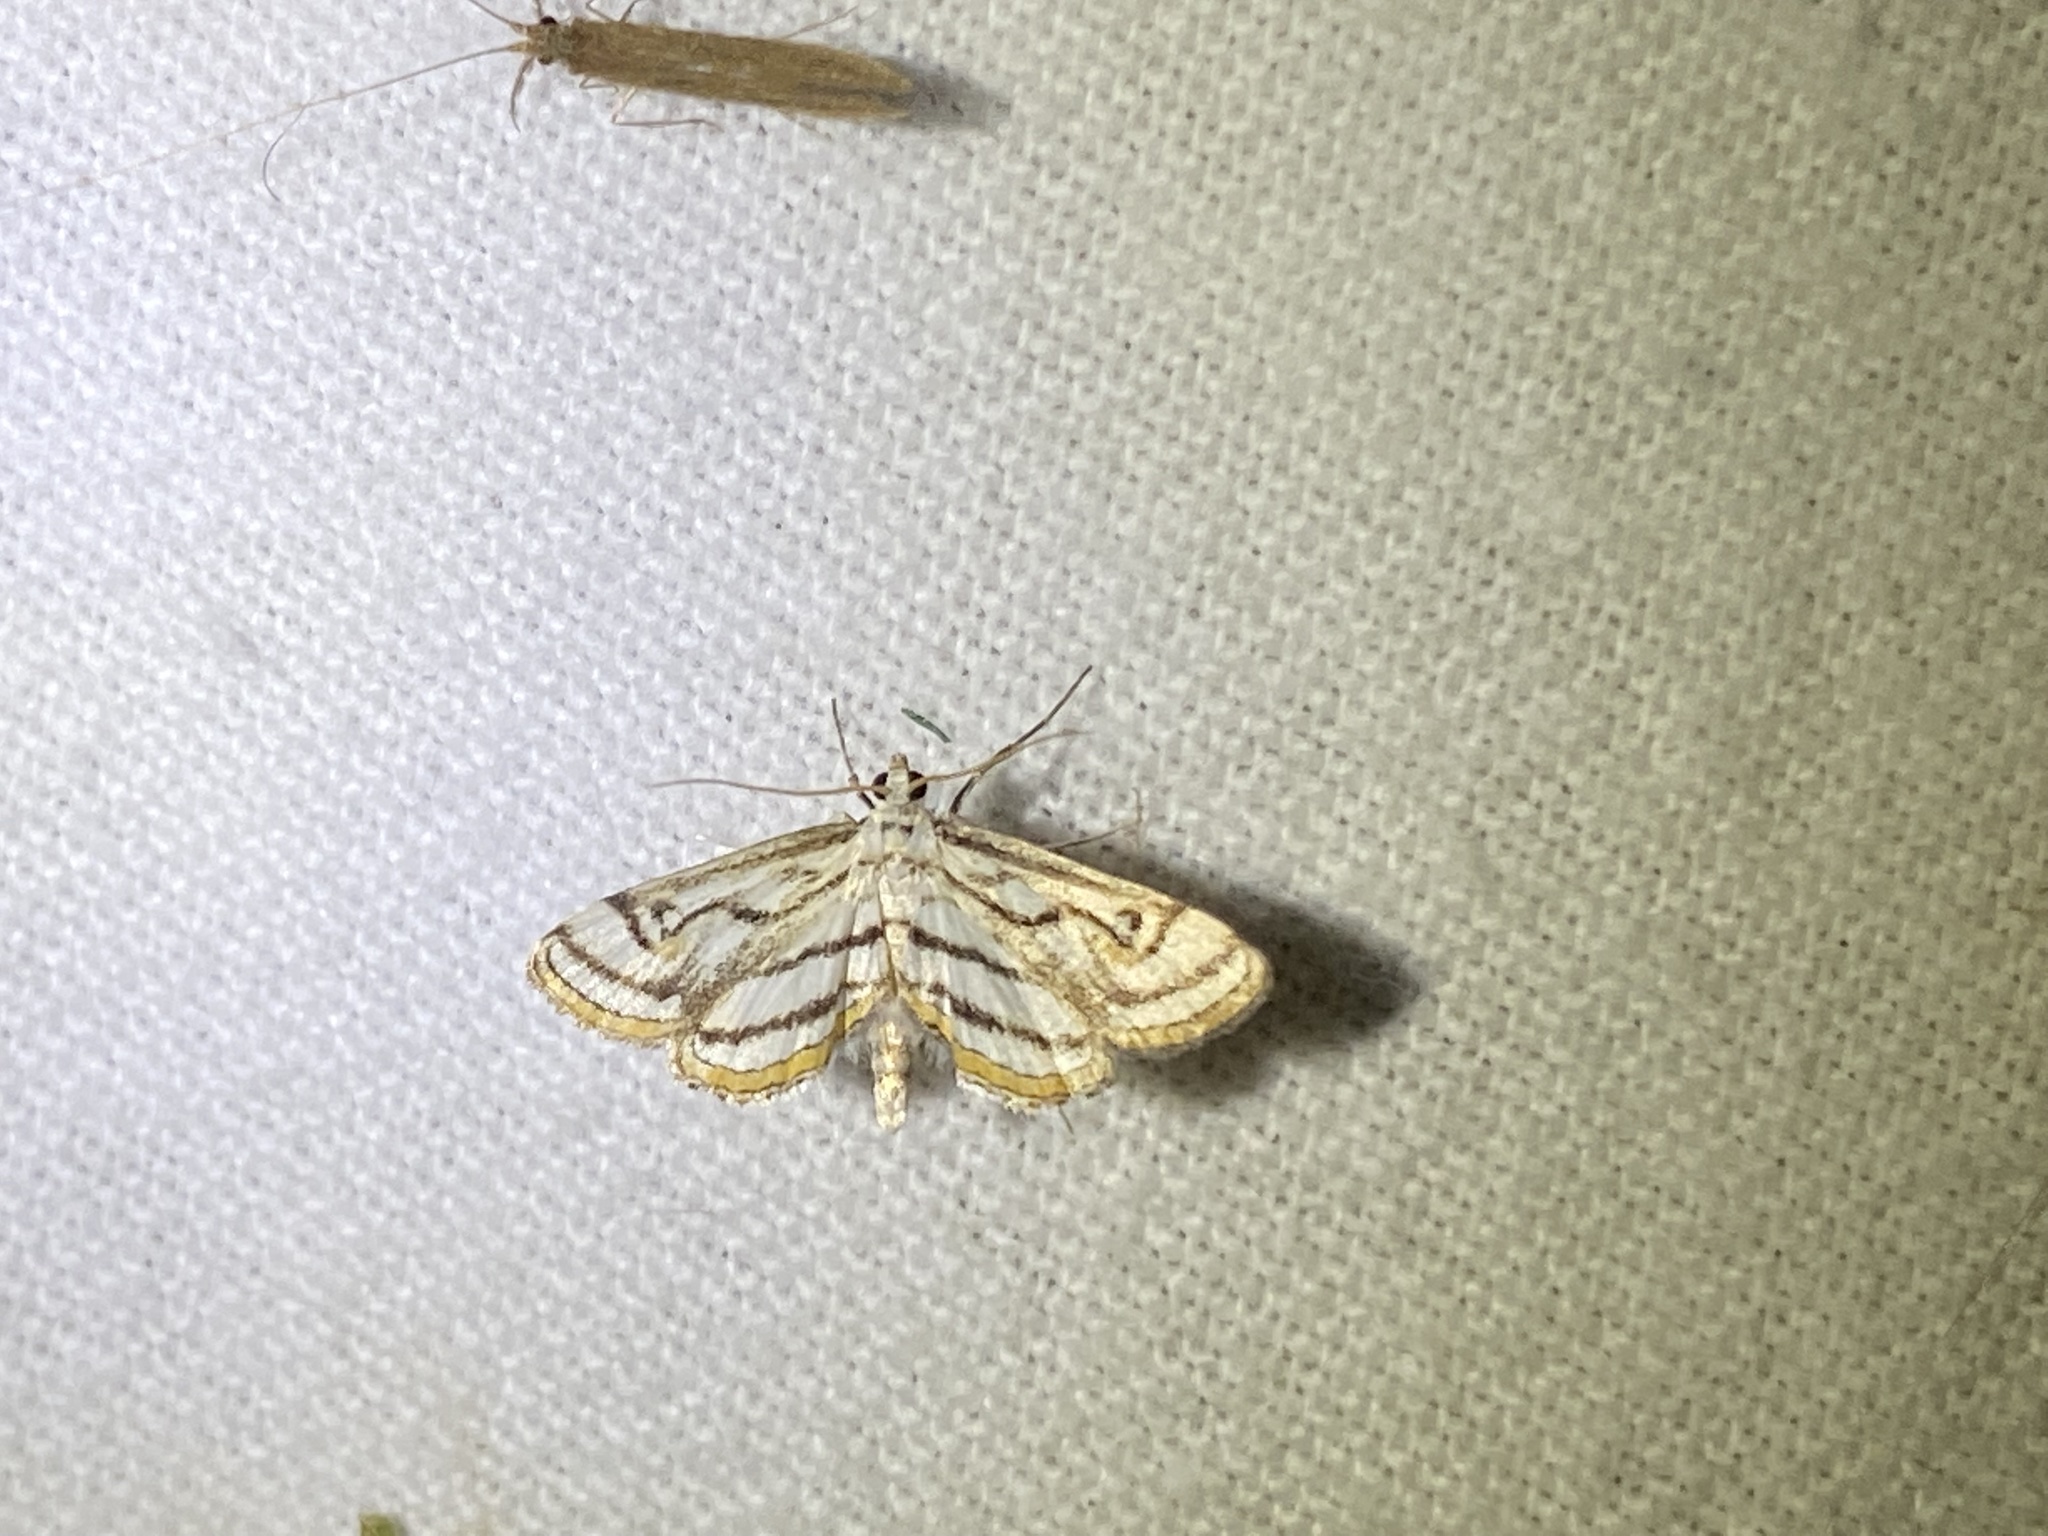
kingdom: Animalia
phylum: Arthropoda
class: Insecta
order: Lepidoptera
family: Crambidae
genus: Parapoynx
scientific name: Parapoynx badiusalis
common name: Chestnut-marked pondweed moth
